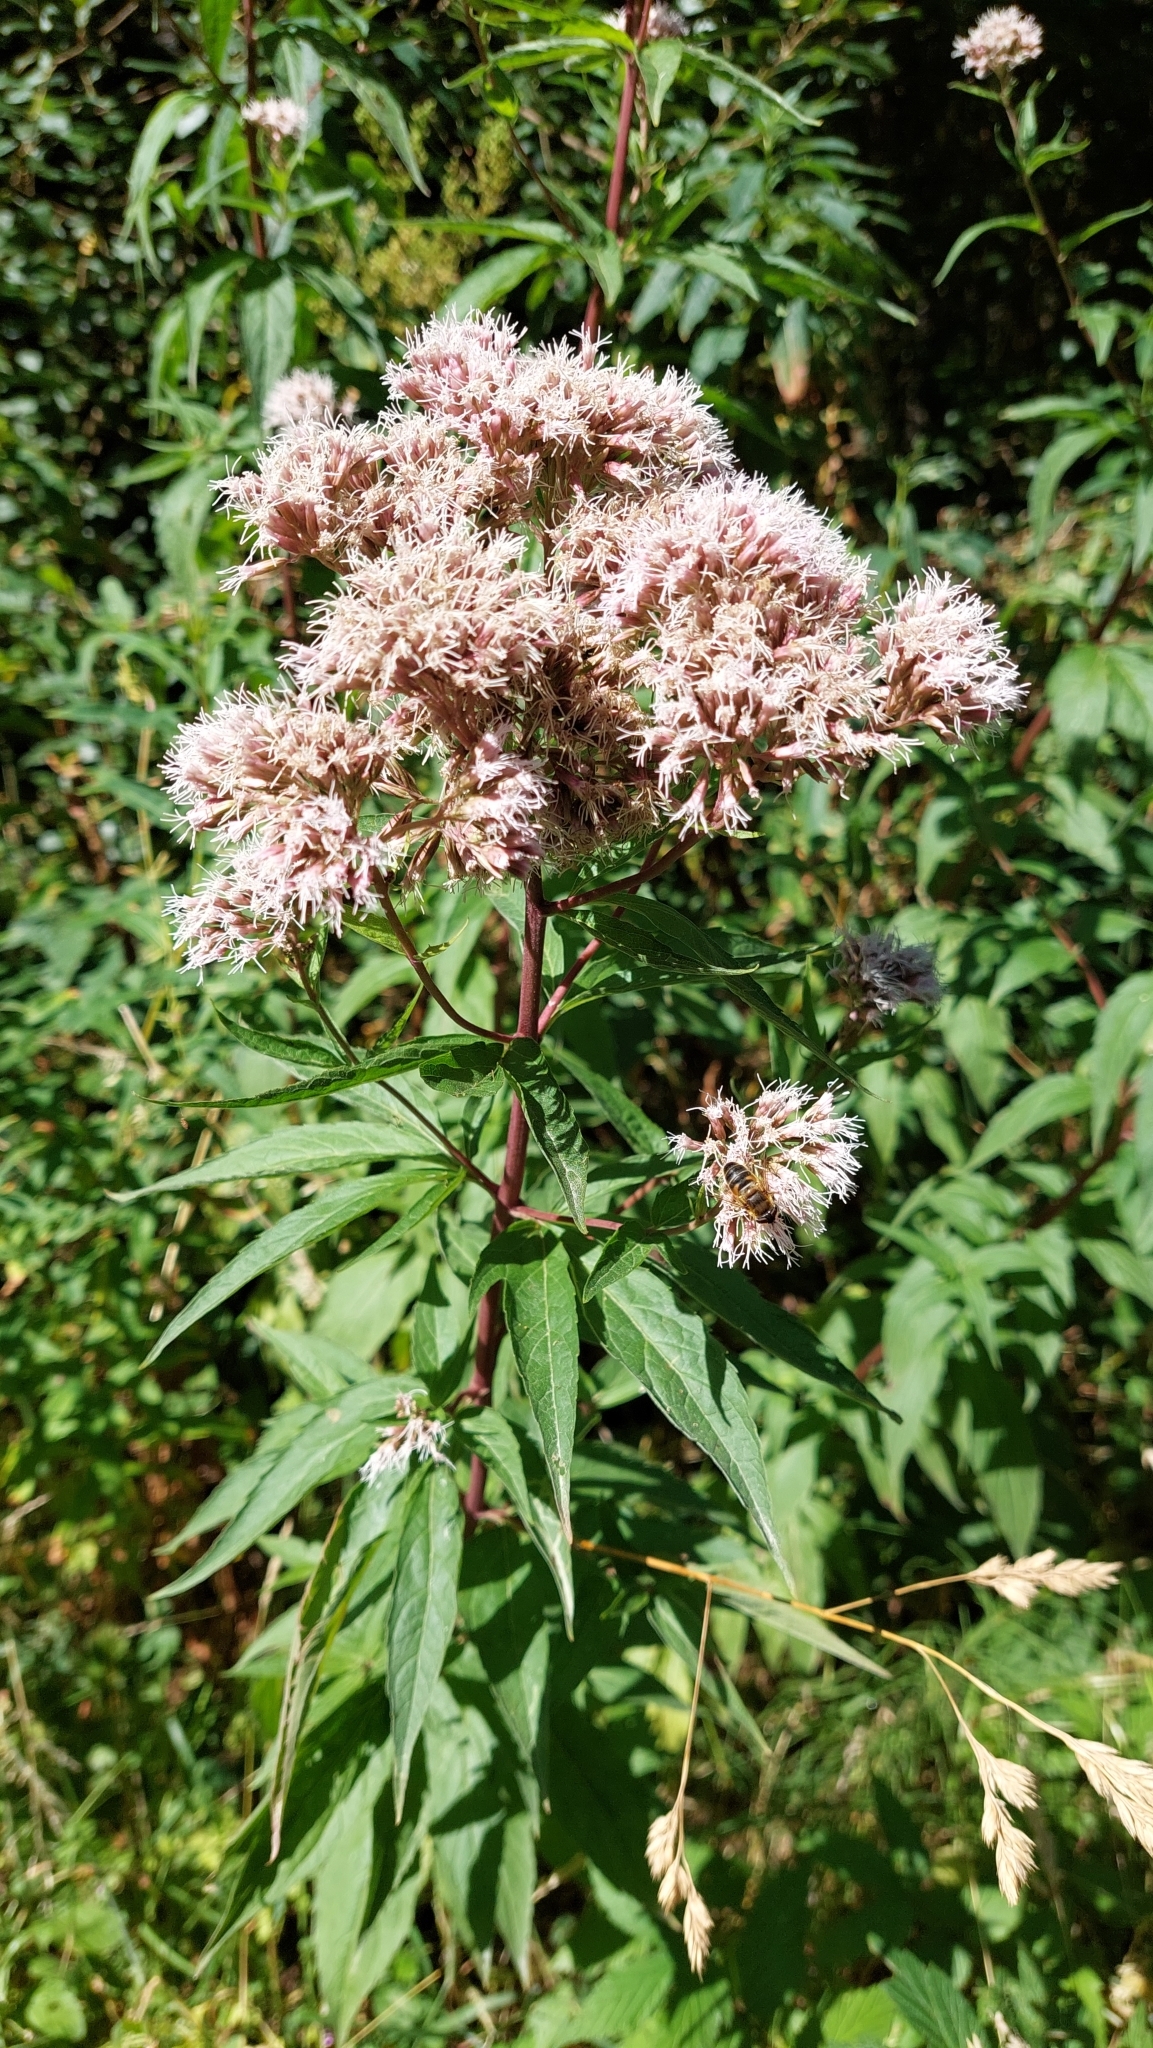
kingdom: Plantae
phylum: Tracheophyta
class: Magnoliopsida
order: Asterales
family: Asteraceae
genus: Eupatorium
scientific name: Eupatorium cannabinum
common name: Hemp-agrimony
